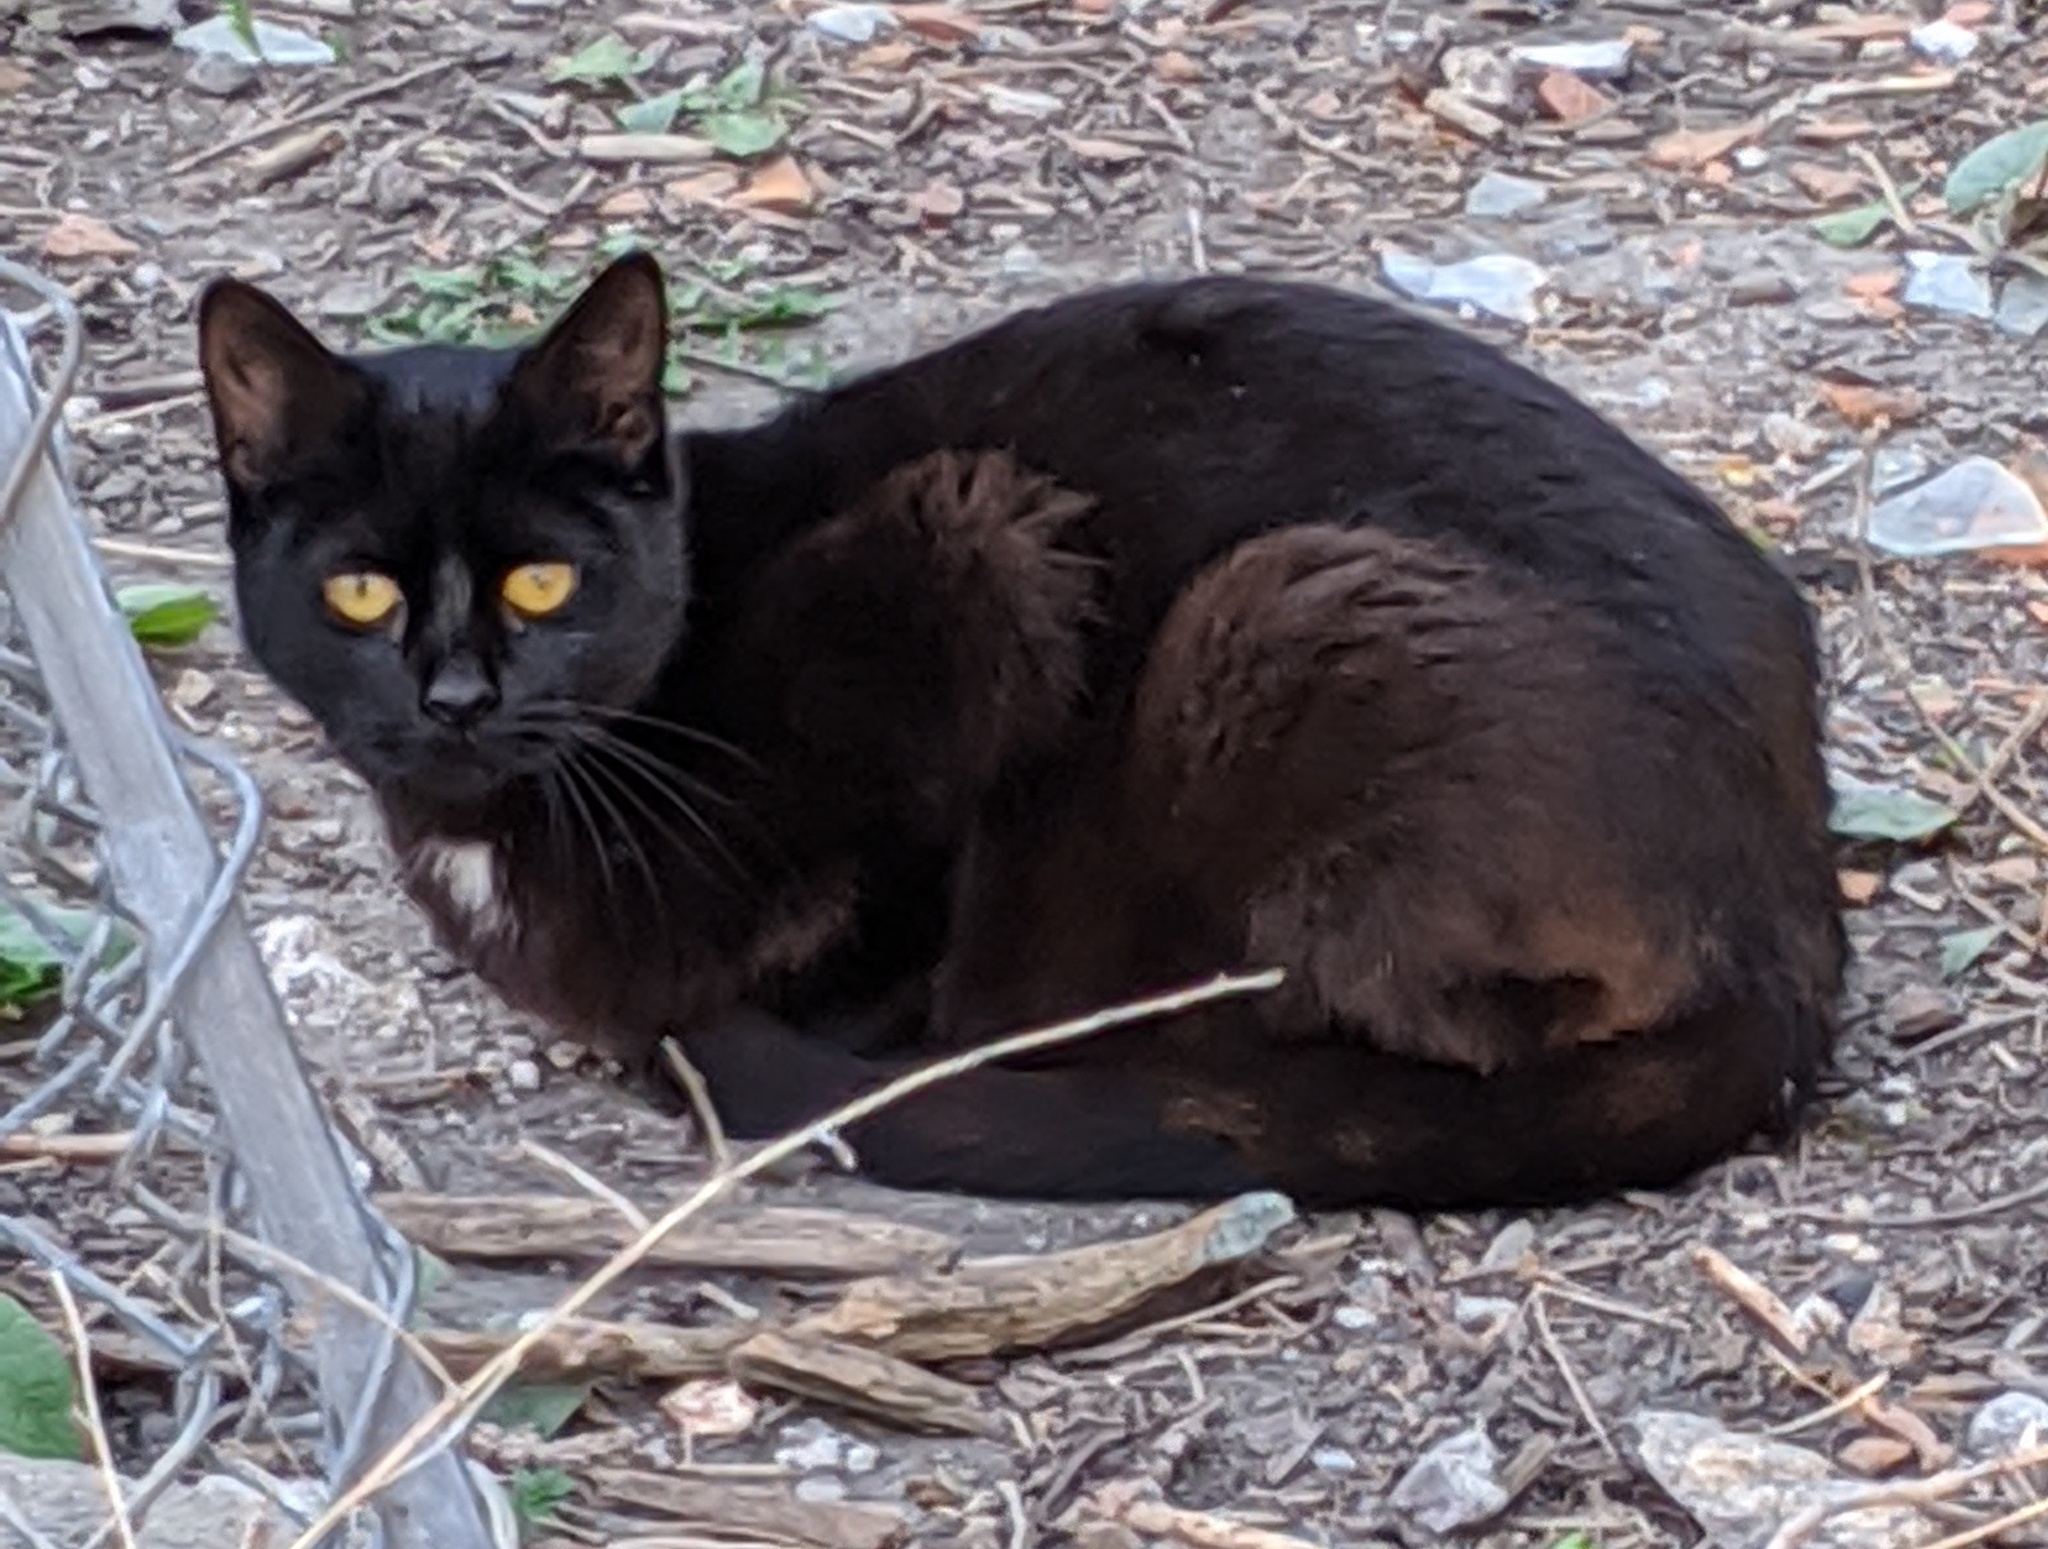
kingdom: Animalia
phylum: Chordata
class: Mammalia
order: Carnivora
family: Felidae
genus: Felis
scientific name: Felis catus
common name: Domestic cat
